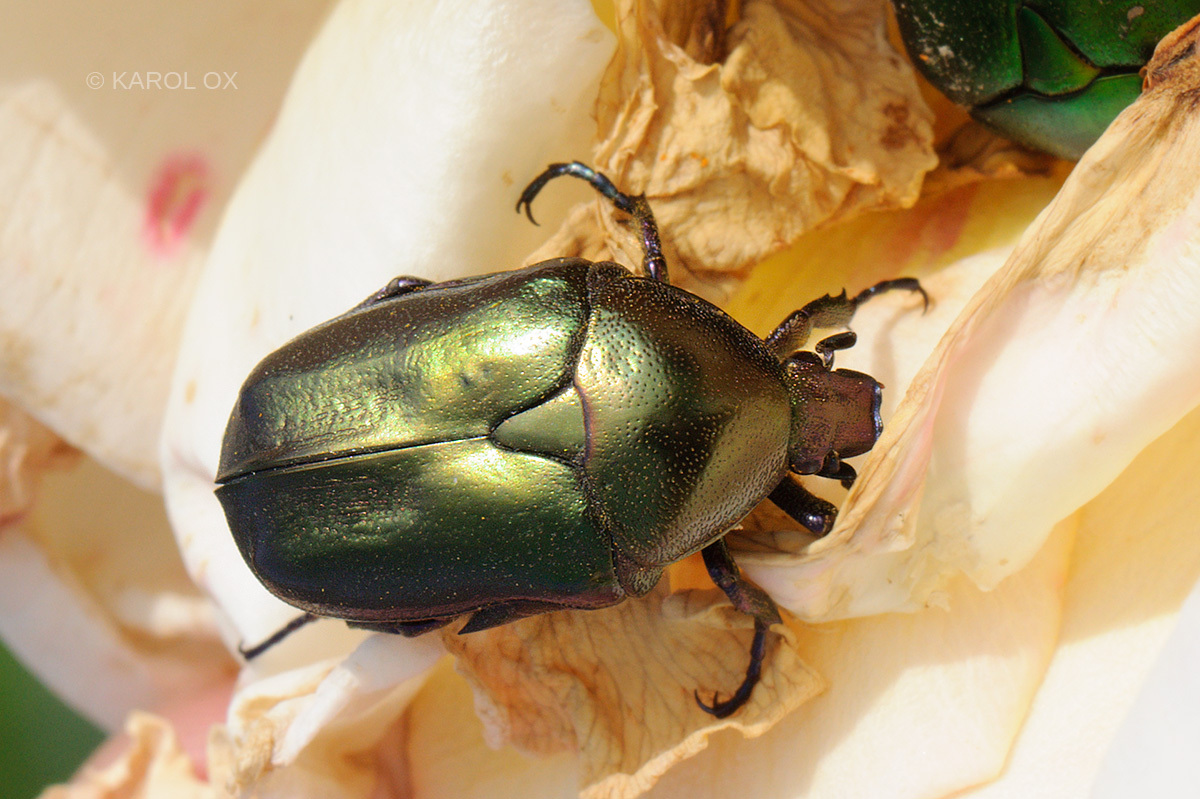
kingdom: Animalia
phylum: Arthropoda
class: Insecta
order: Coleoptera
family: Scarabaeidae
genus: Protaetia
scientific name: Protaetia cuprea
